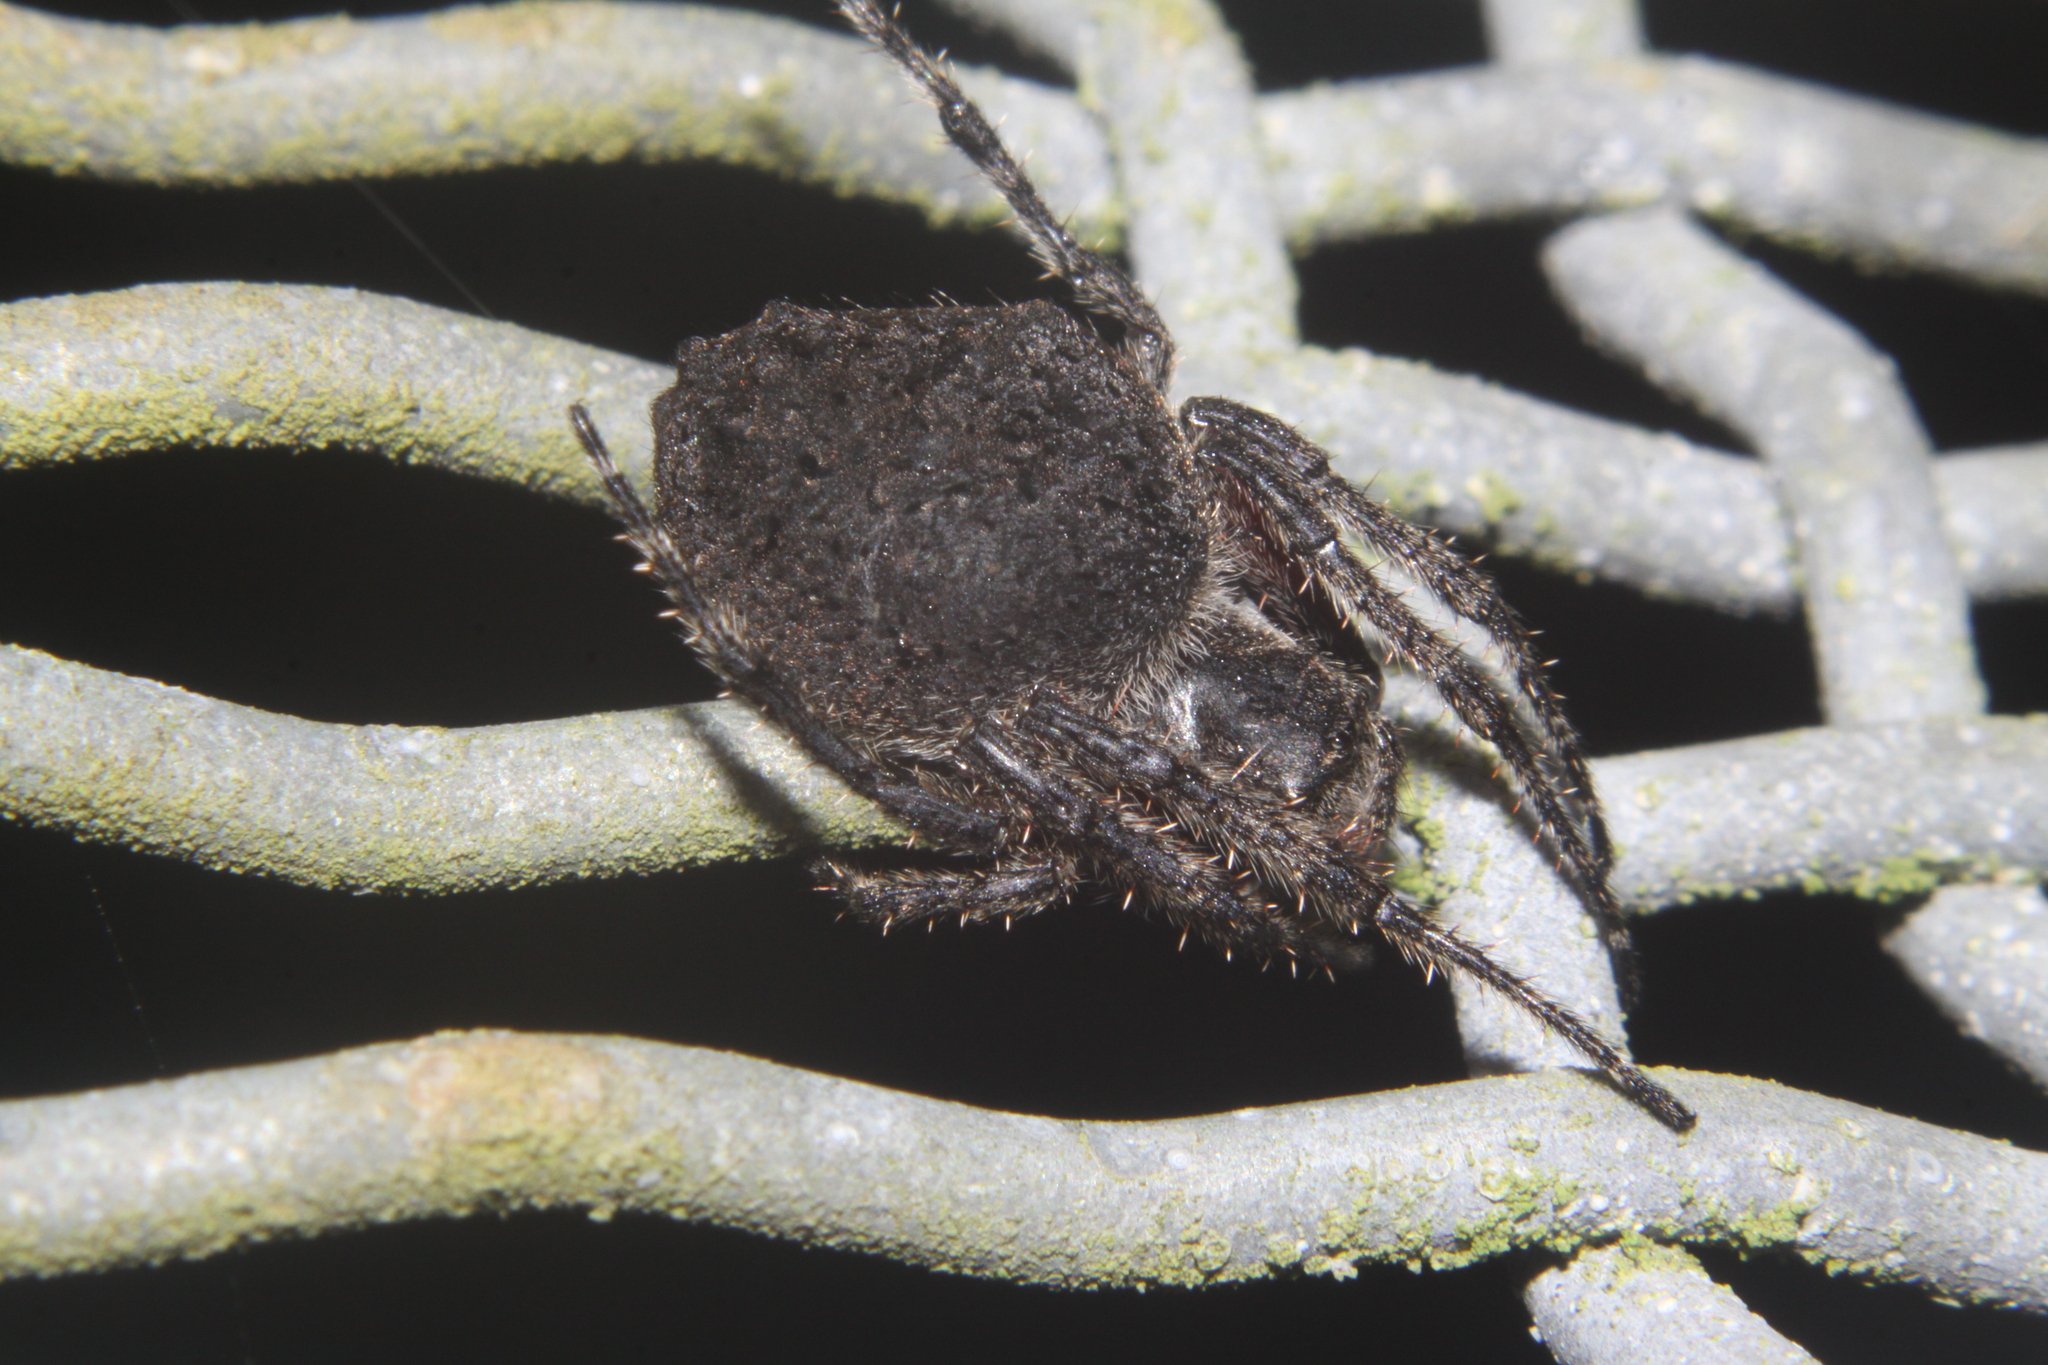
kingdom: Animalia
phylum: Arthropoda
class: Arachnida
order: Araneae
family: Araneidae
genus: Eriophora
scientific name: Eriophora pustulosa
